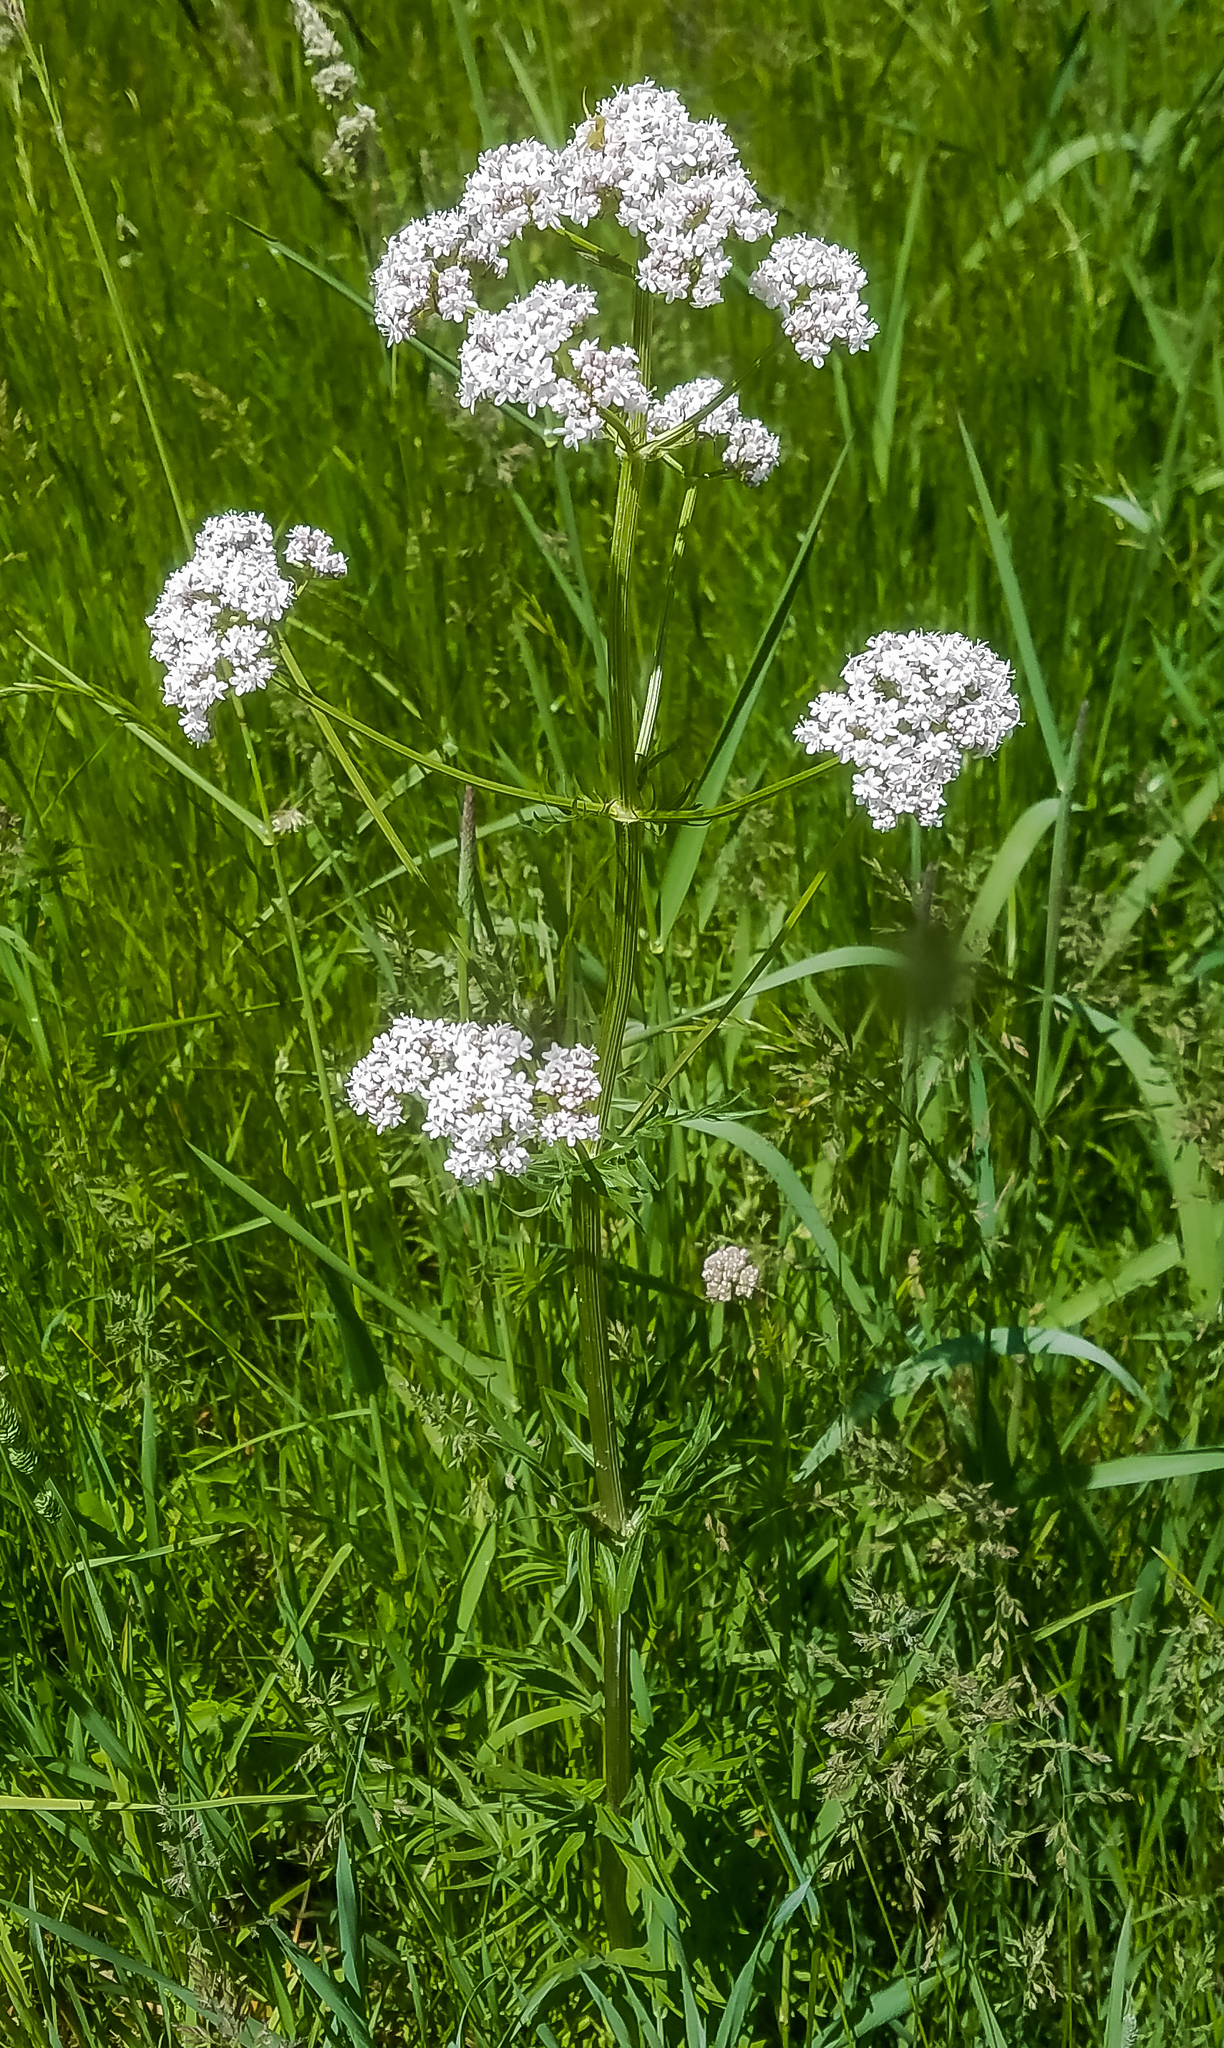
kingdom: Plantae
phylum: Tracheophyta
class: Magnoliopsida
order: Dipsacales
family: Caprifoliaceae
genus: Valeriana
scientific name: Valeriana officinalis
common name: Common valerian
